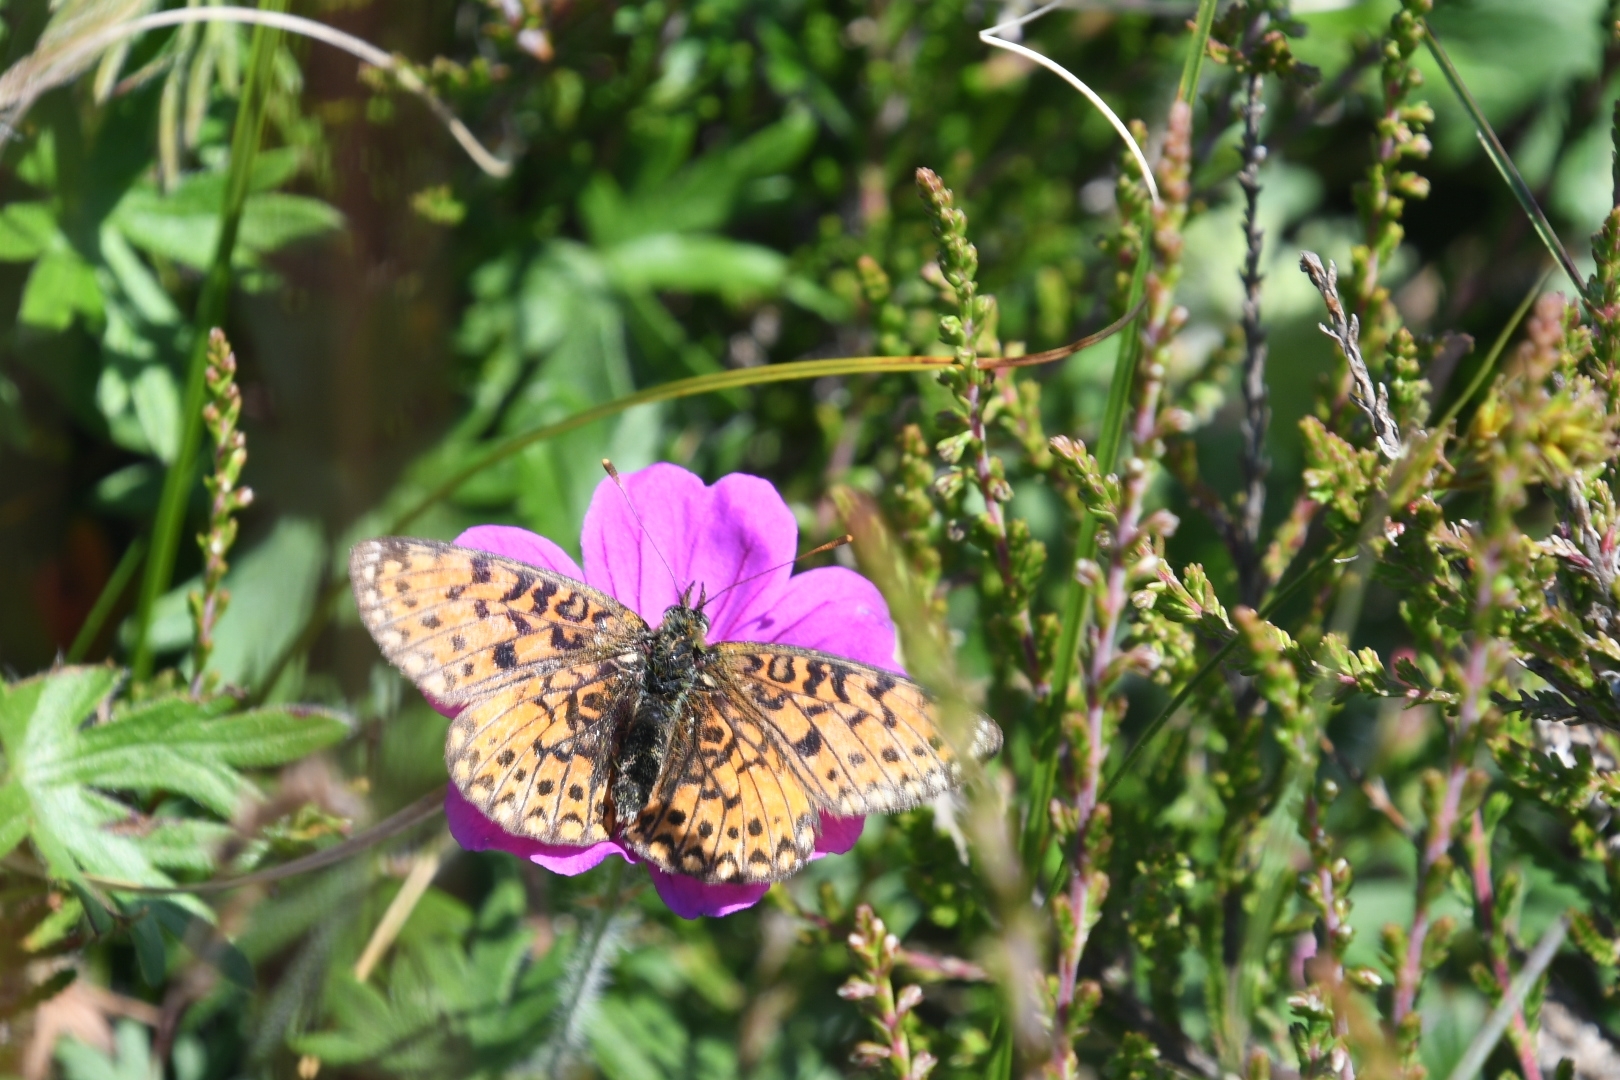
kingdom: Animalia
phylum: Arthropoda
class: Insecta
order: Lepidoptera
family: Nymphalidae
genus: Boloria
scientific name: Boloria selene
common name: Small pearl-bordered fritillary
